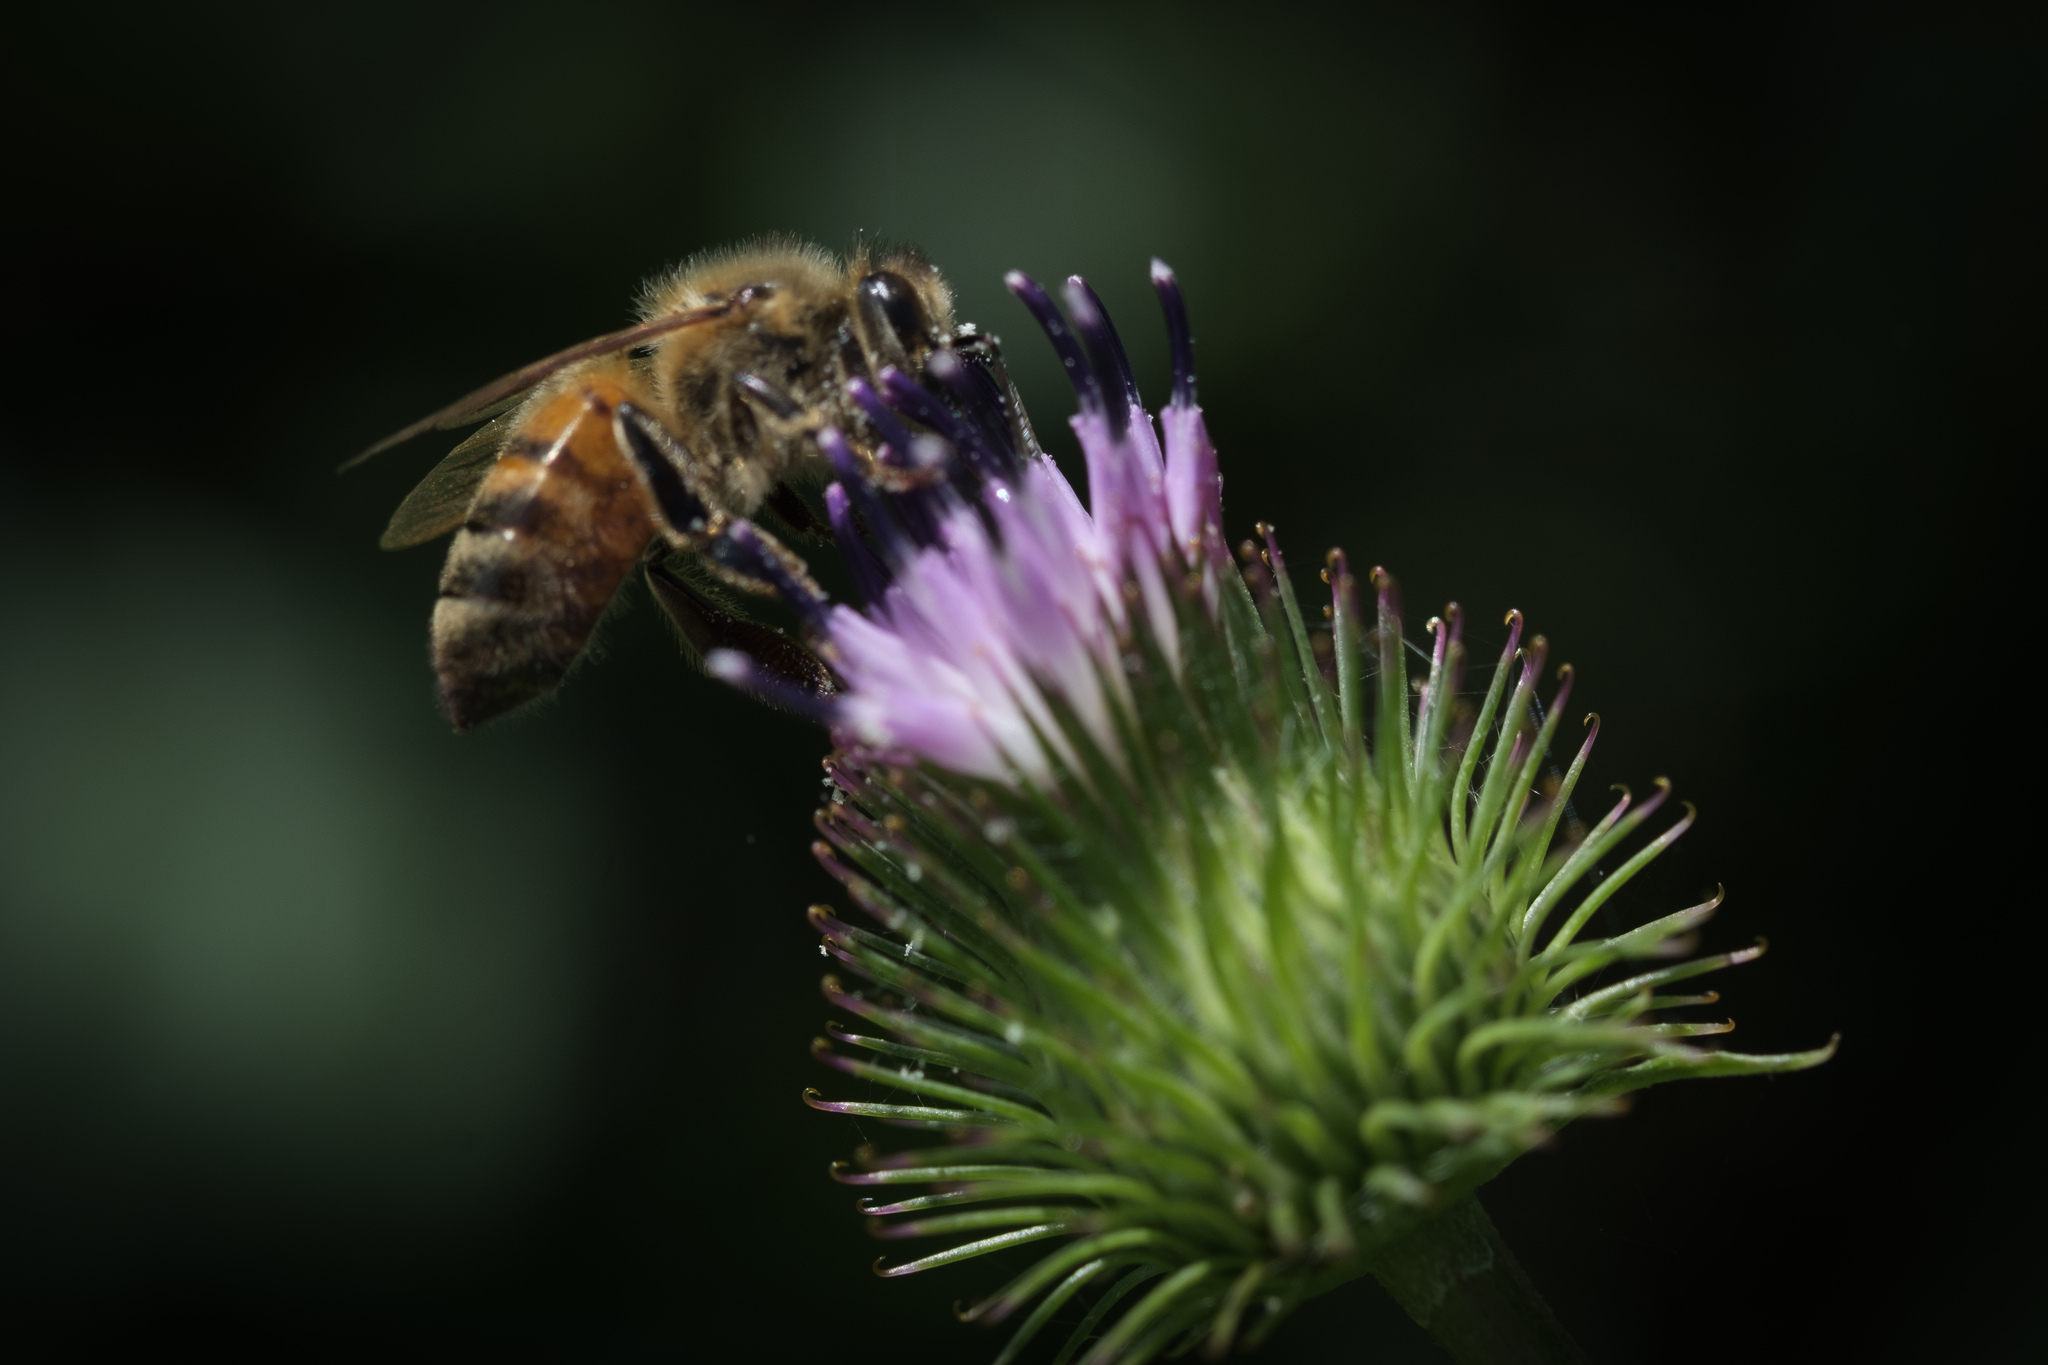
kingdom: Animalia
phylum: Arthropoda
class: Insecta
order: Hymenoptera
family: Apidae
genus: Apis
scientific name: Apis mellifera
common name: Honey bee
